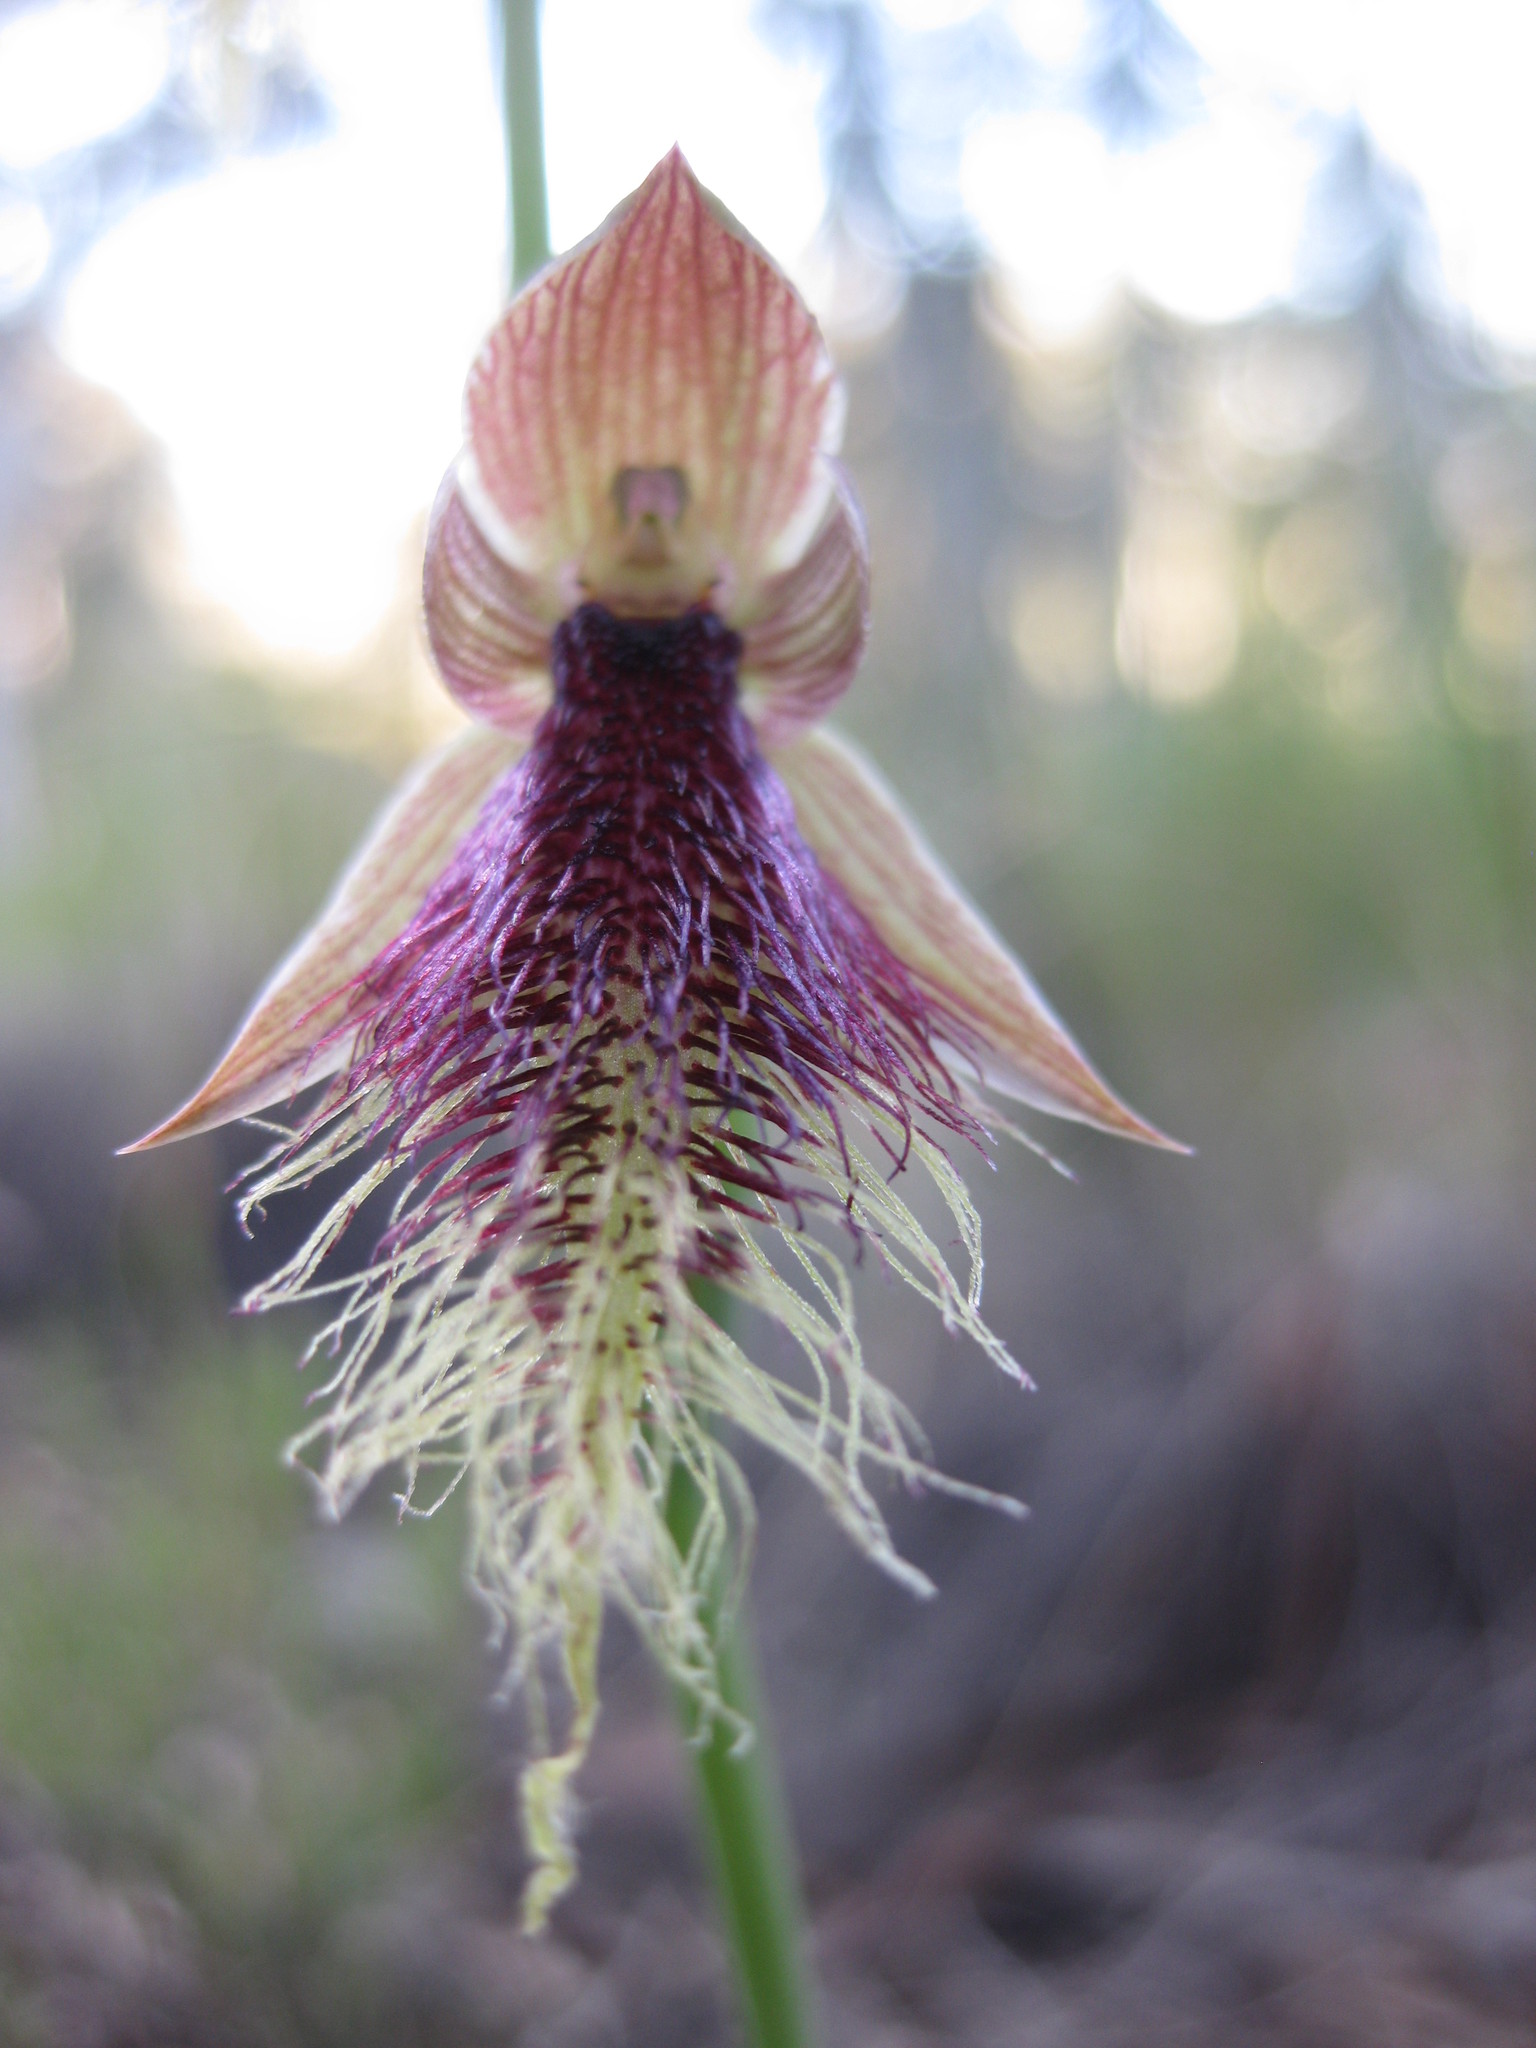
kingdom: Plantae
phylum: Tracheophyta
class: Liliopsida
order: Asparagales
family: Orchidaceae
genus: Calochilus
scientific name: Calochilus robertsonii
